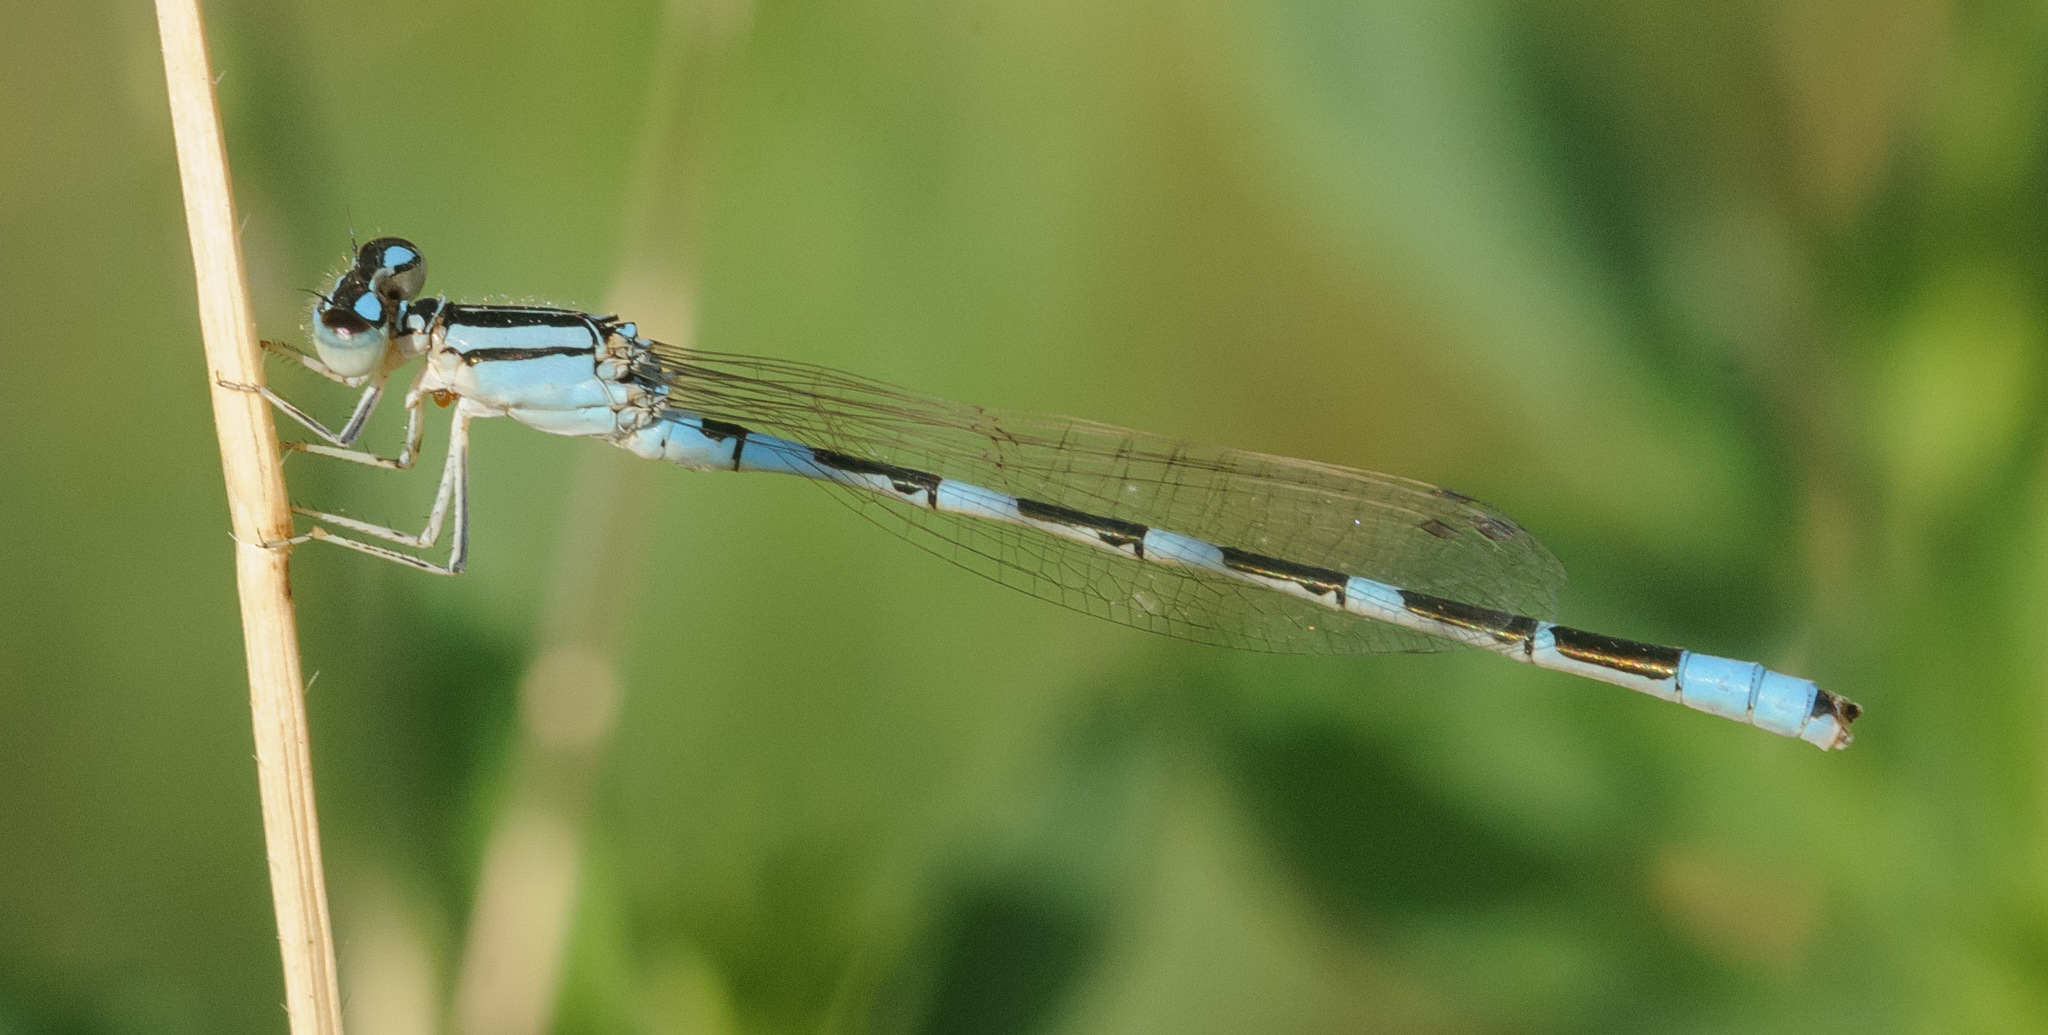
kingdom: Animalia
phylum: Arthropoda
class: Insecta
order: Odonata
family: Coenagrionidae
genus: Enallagma
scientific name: Enallagma carunculatum
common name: Tule bluet
